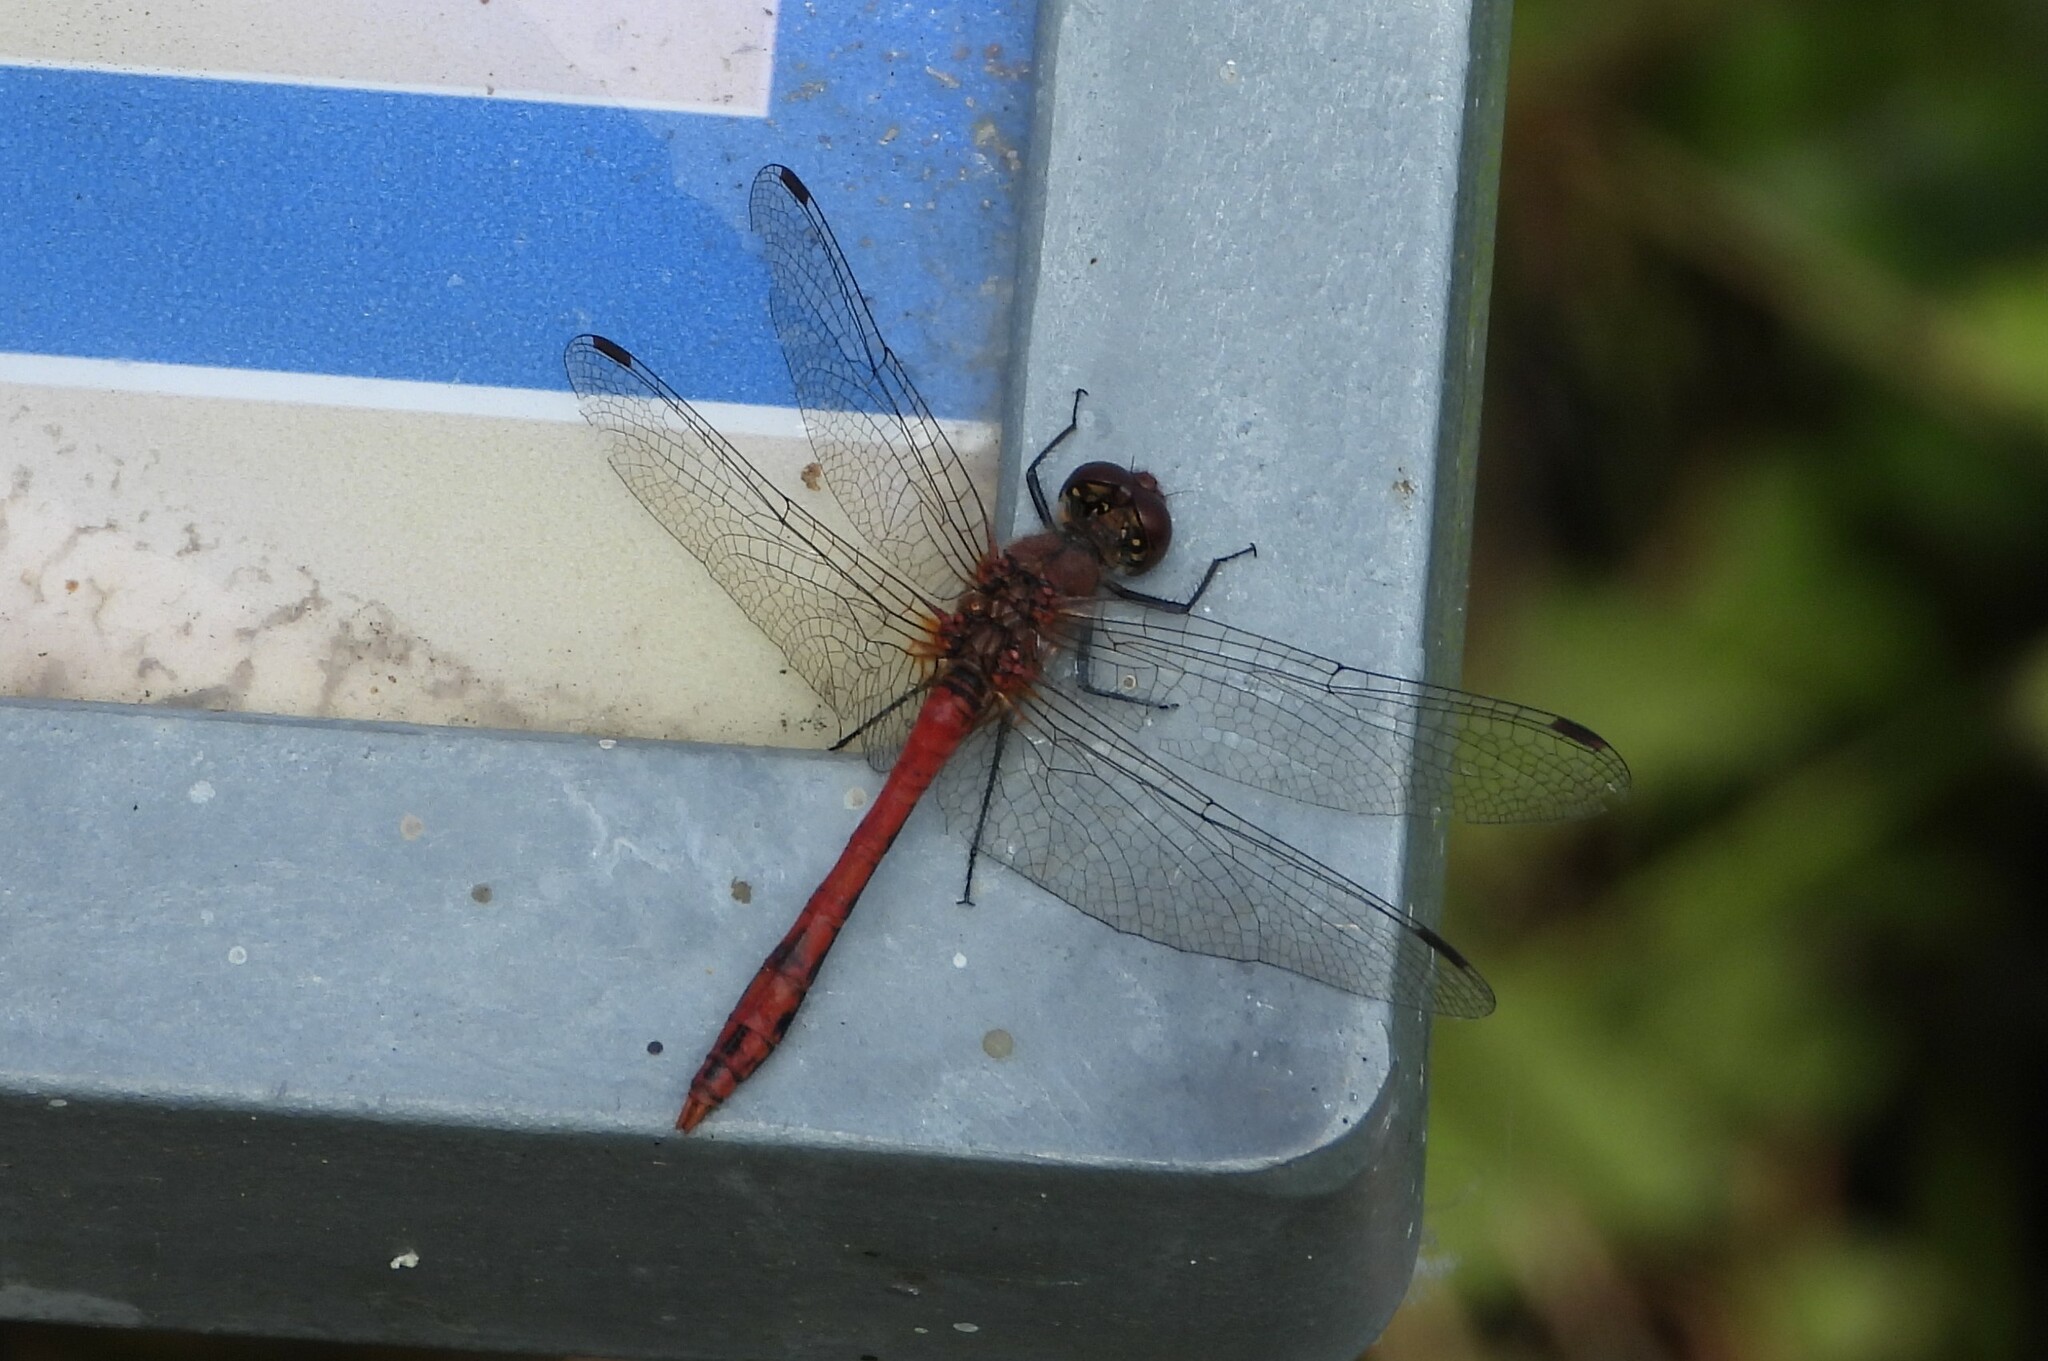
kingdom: Animalia
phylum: Arthropoda
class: Insecta
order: Odonata
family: Libellulidae
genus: Sympetrum
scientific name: Sympetrum sanguineum
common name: Ruddy darter
